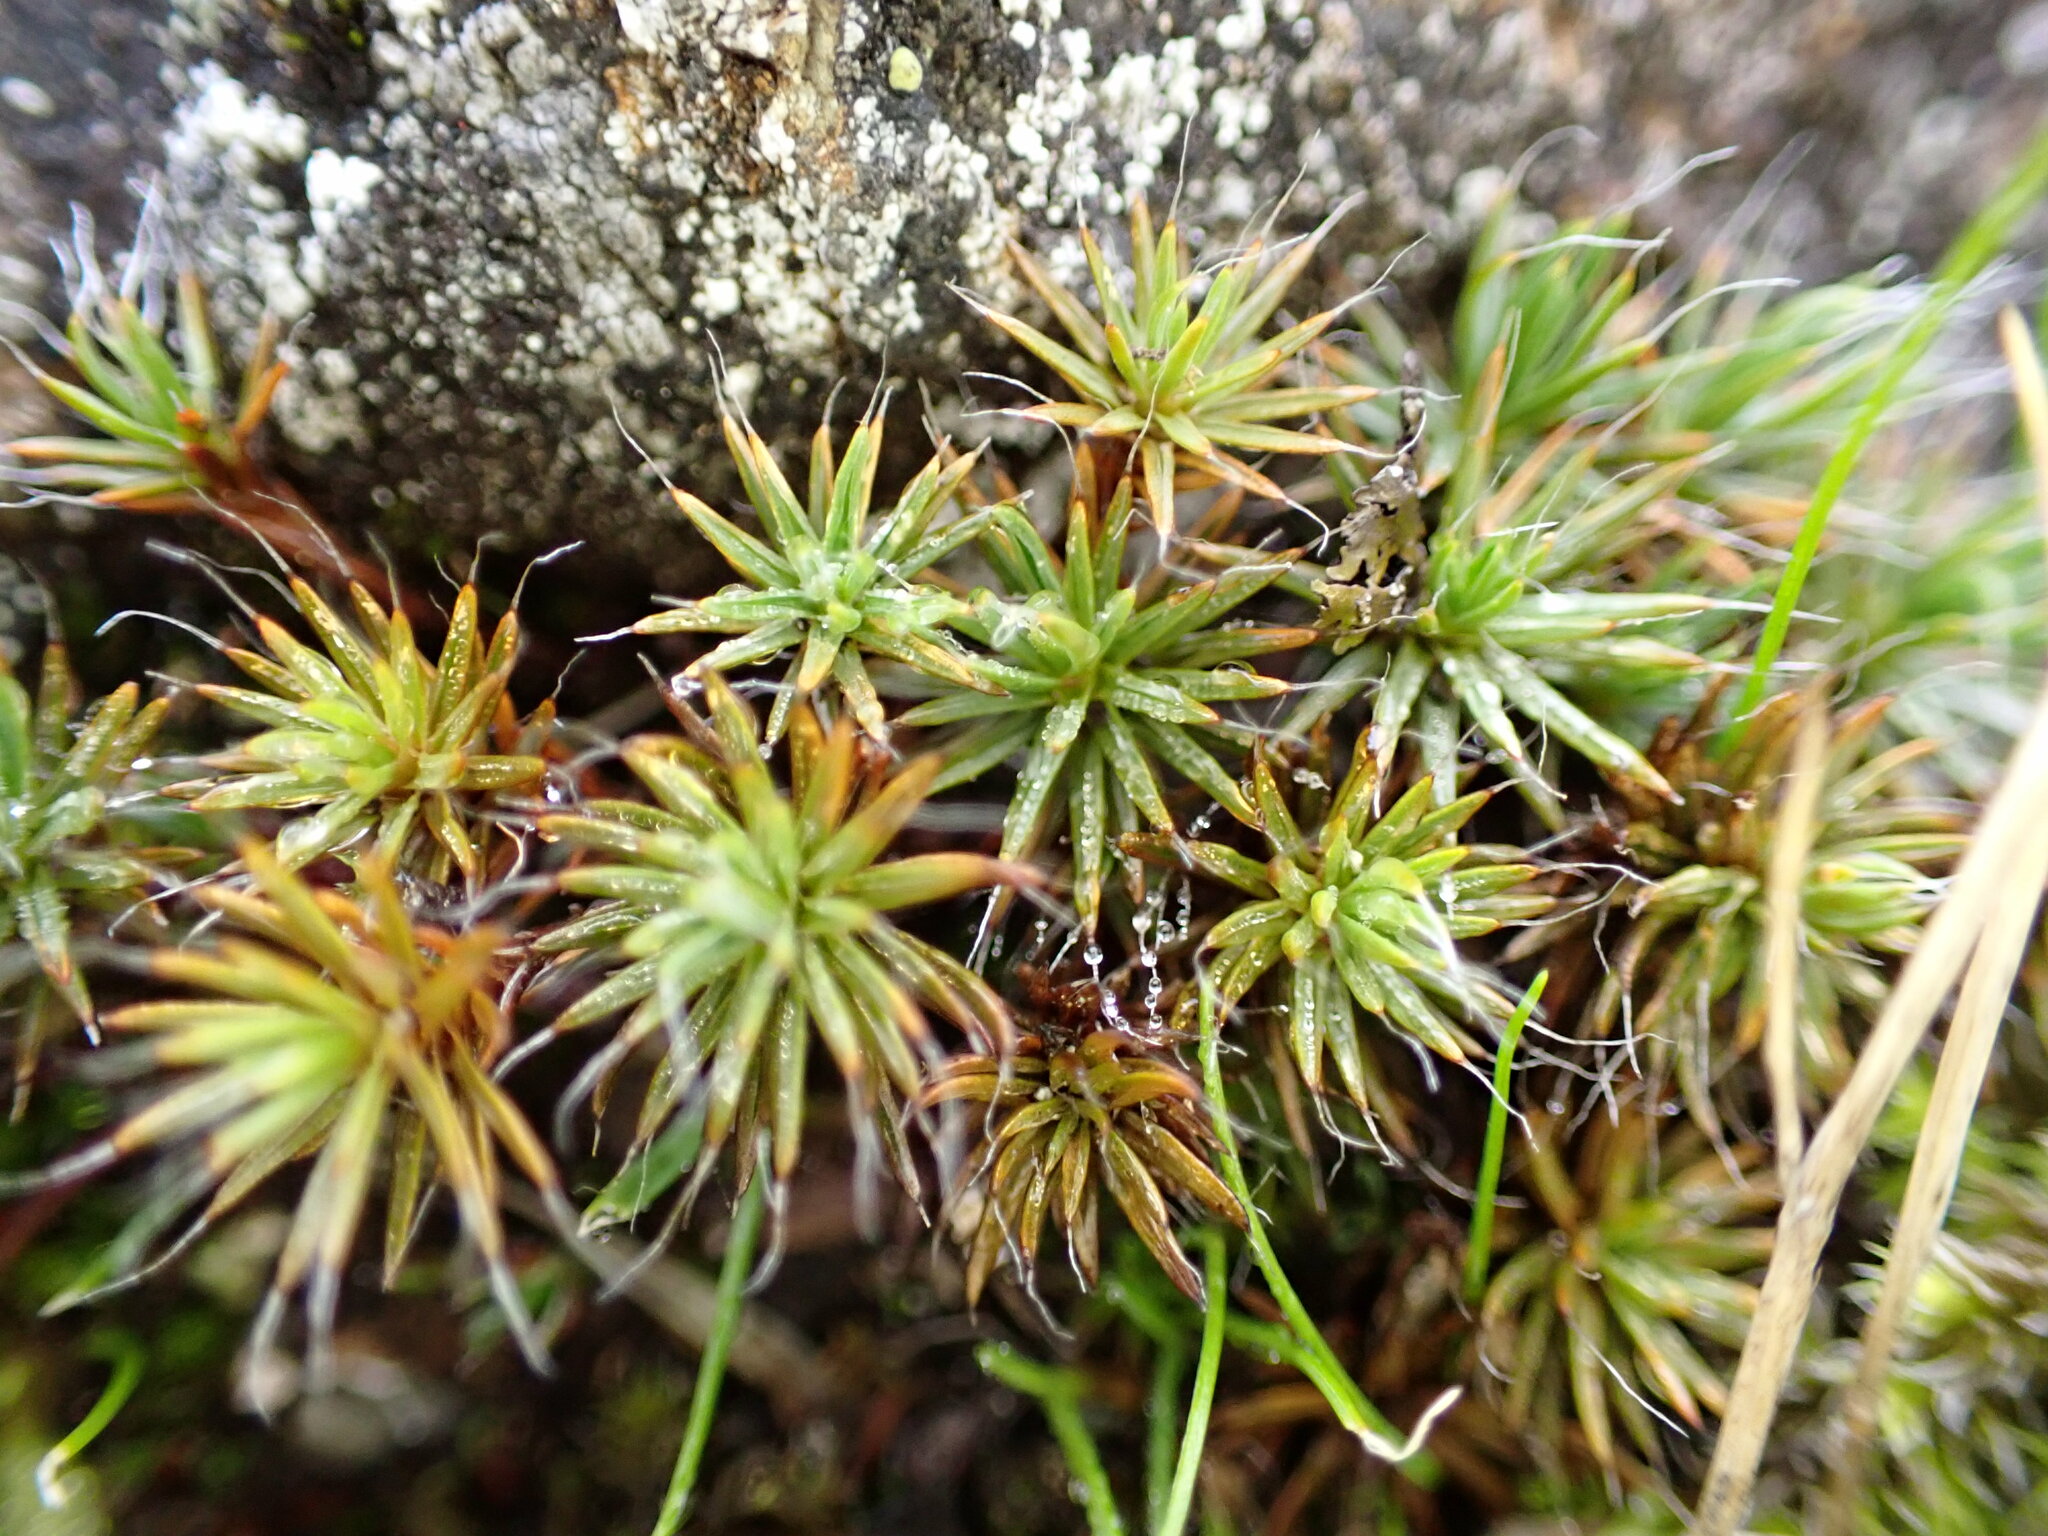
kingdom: Plantae
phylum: Bryophyta
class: Polytrichopsida
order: Polytrichales
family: Polytrichaceae
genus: Polytrichum
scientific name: Polytrichum piliferum
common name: Bristly haircap
